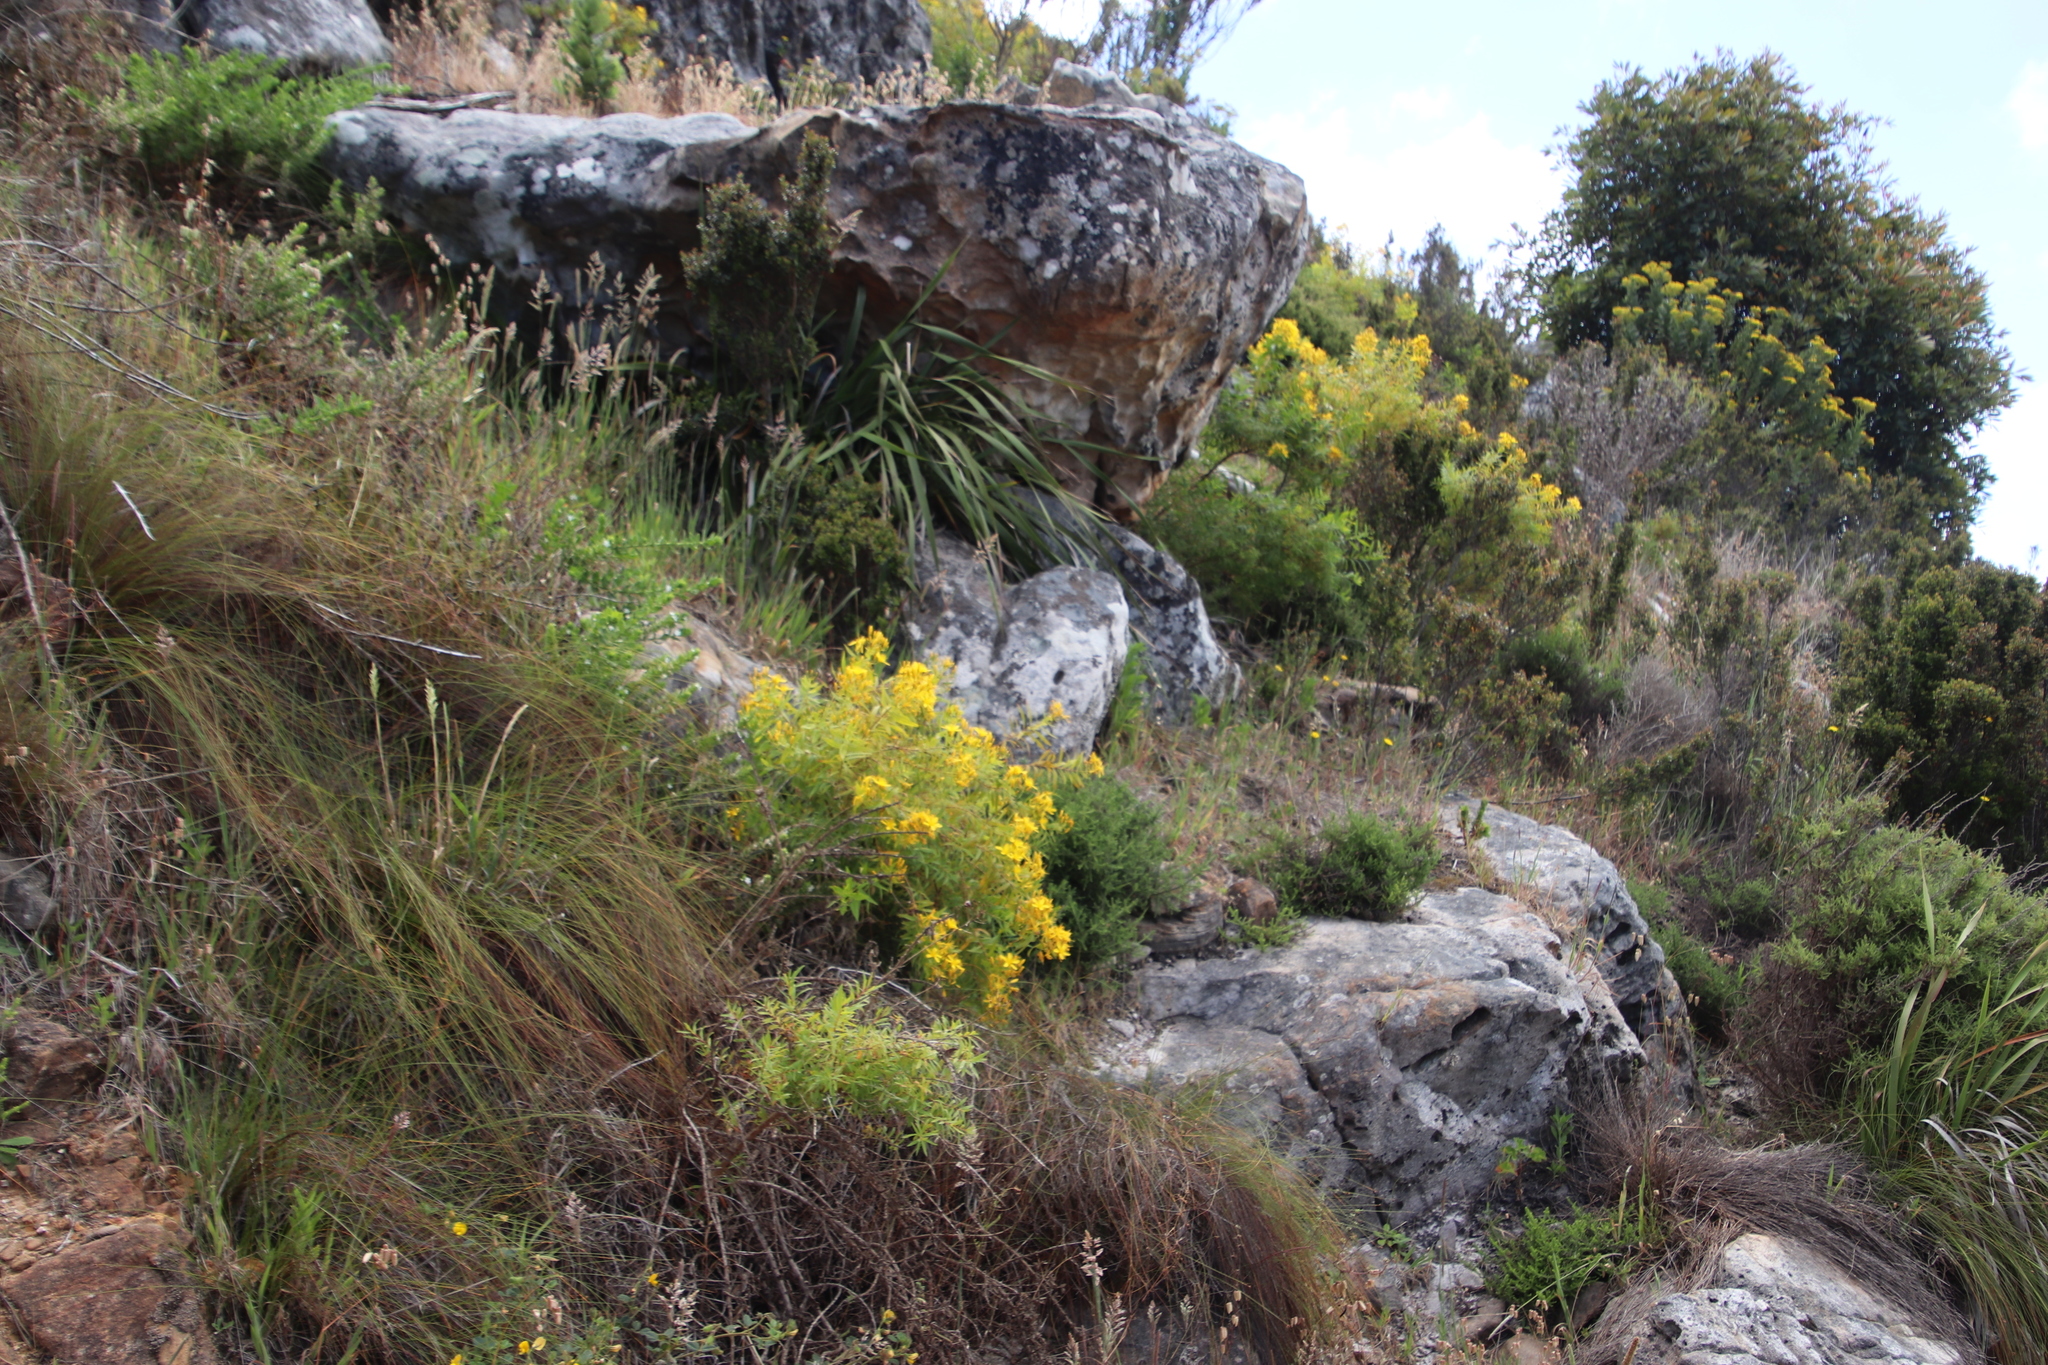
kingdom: Plantae
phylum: Tracheophyta
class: Magnoliopsida
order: Malpighiales
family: Hypericaceae
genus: Hypericum
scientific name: Hypericum canariense
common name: Canary island st. johnswort
